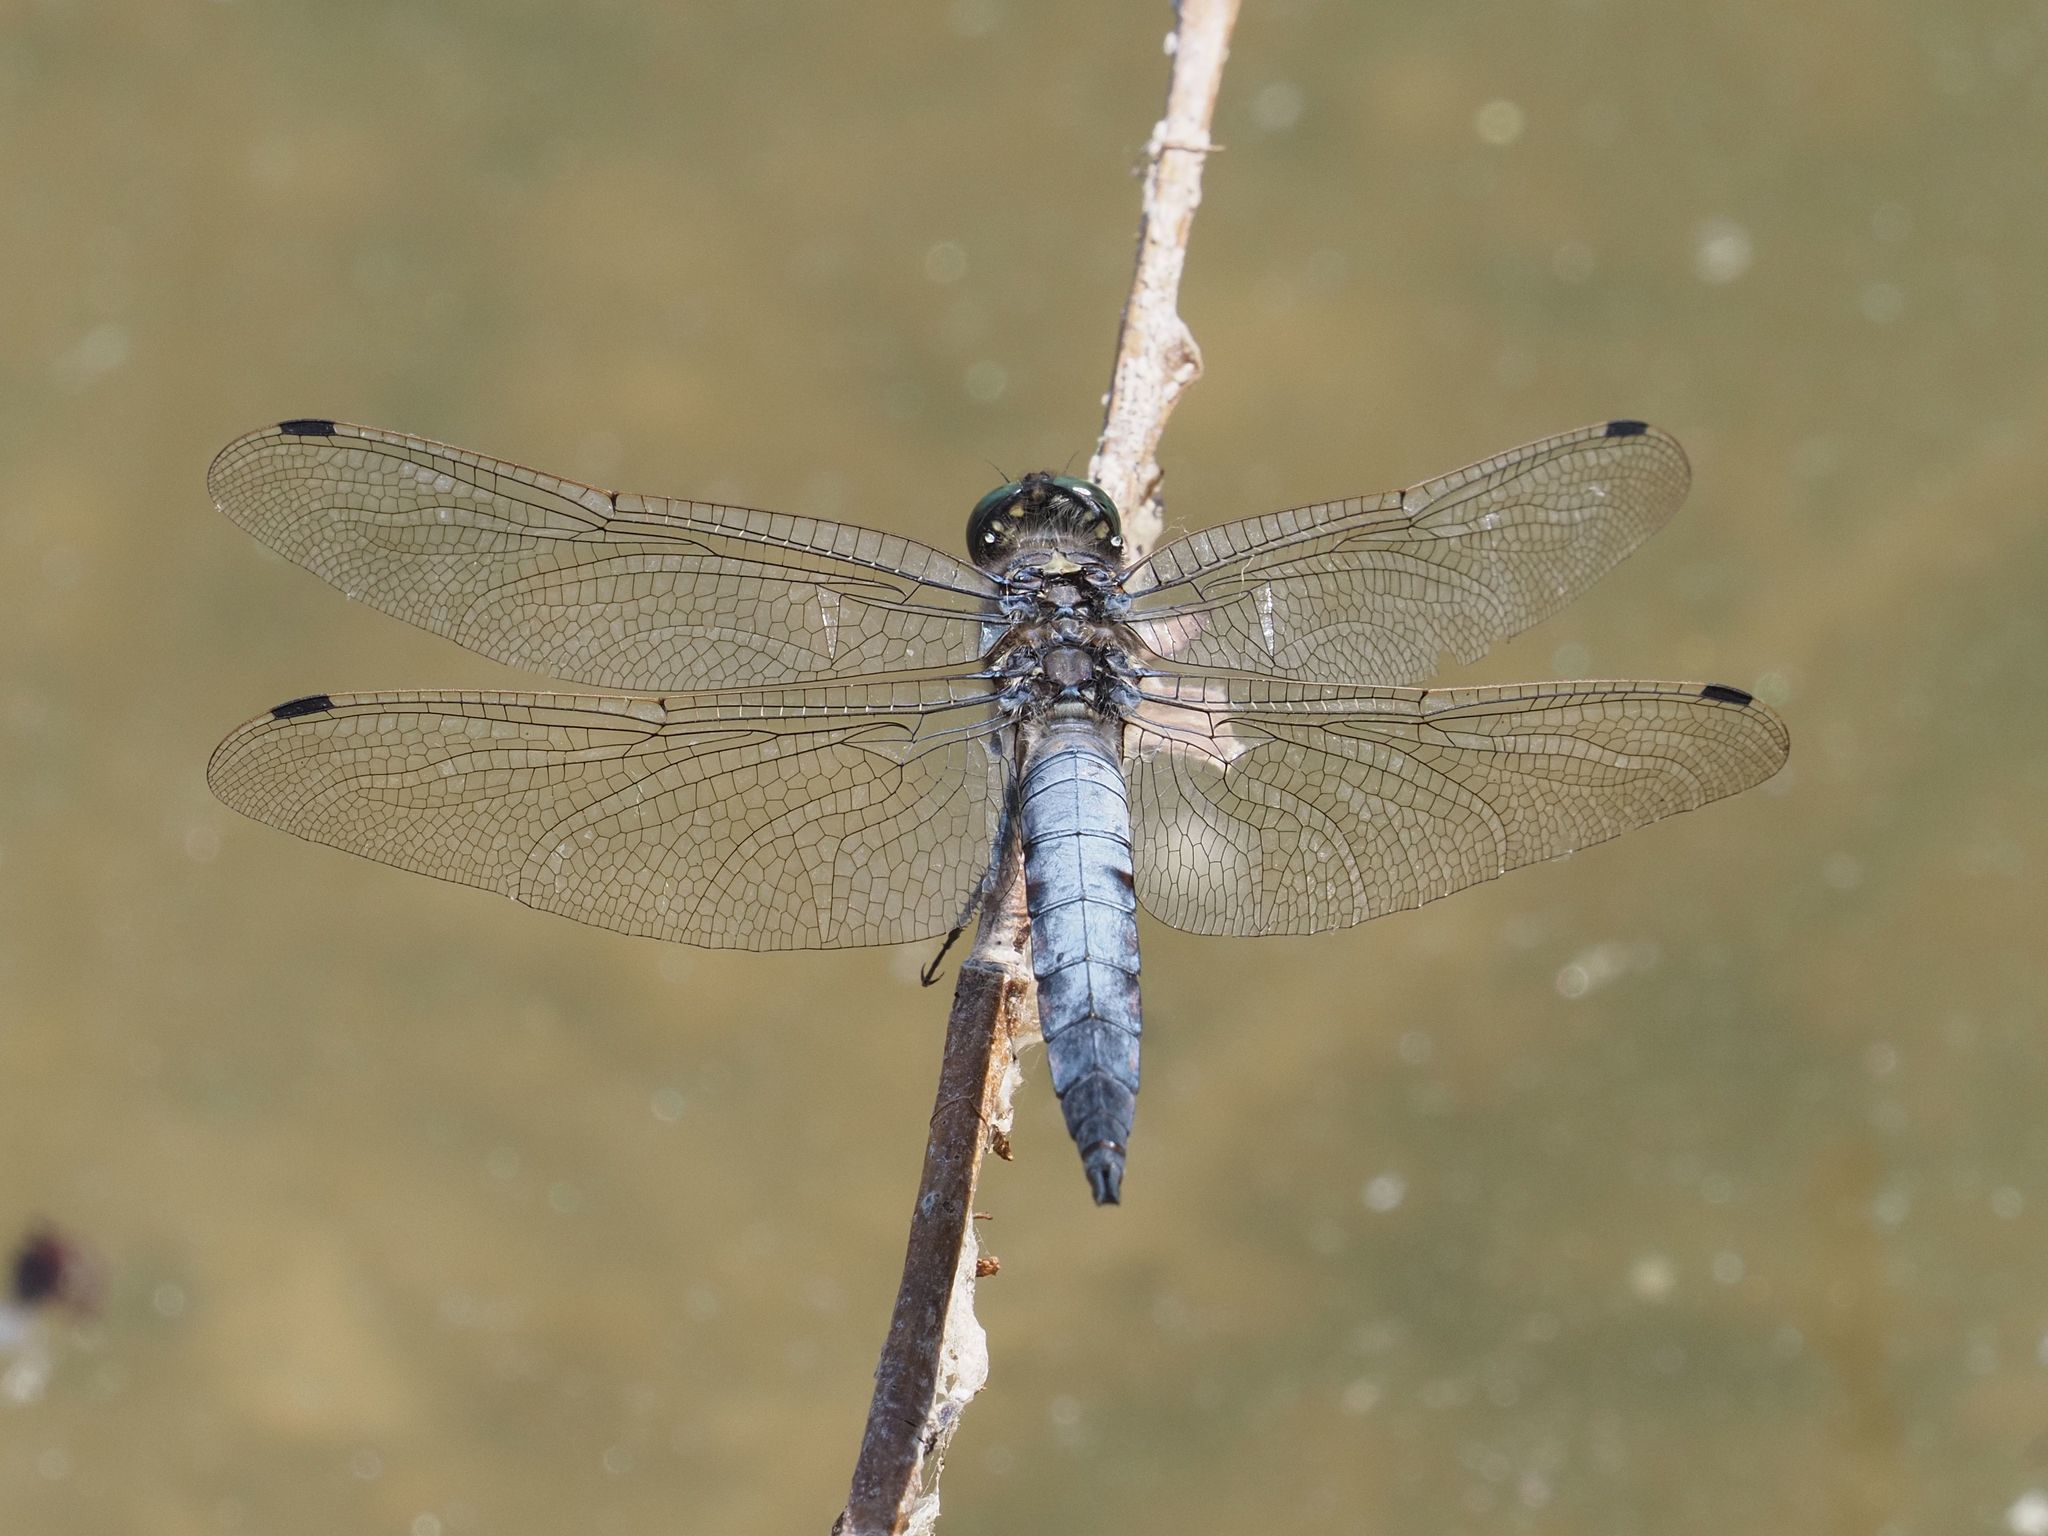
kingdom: Animalia
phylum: Arthropoda
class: Insecta
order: Odonata
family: Libellulidae
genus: Orthetrum
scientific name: Orthetrum cancellatum
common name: Black-tailed skimmer
